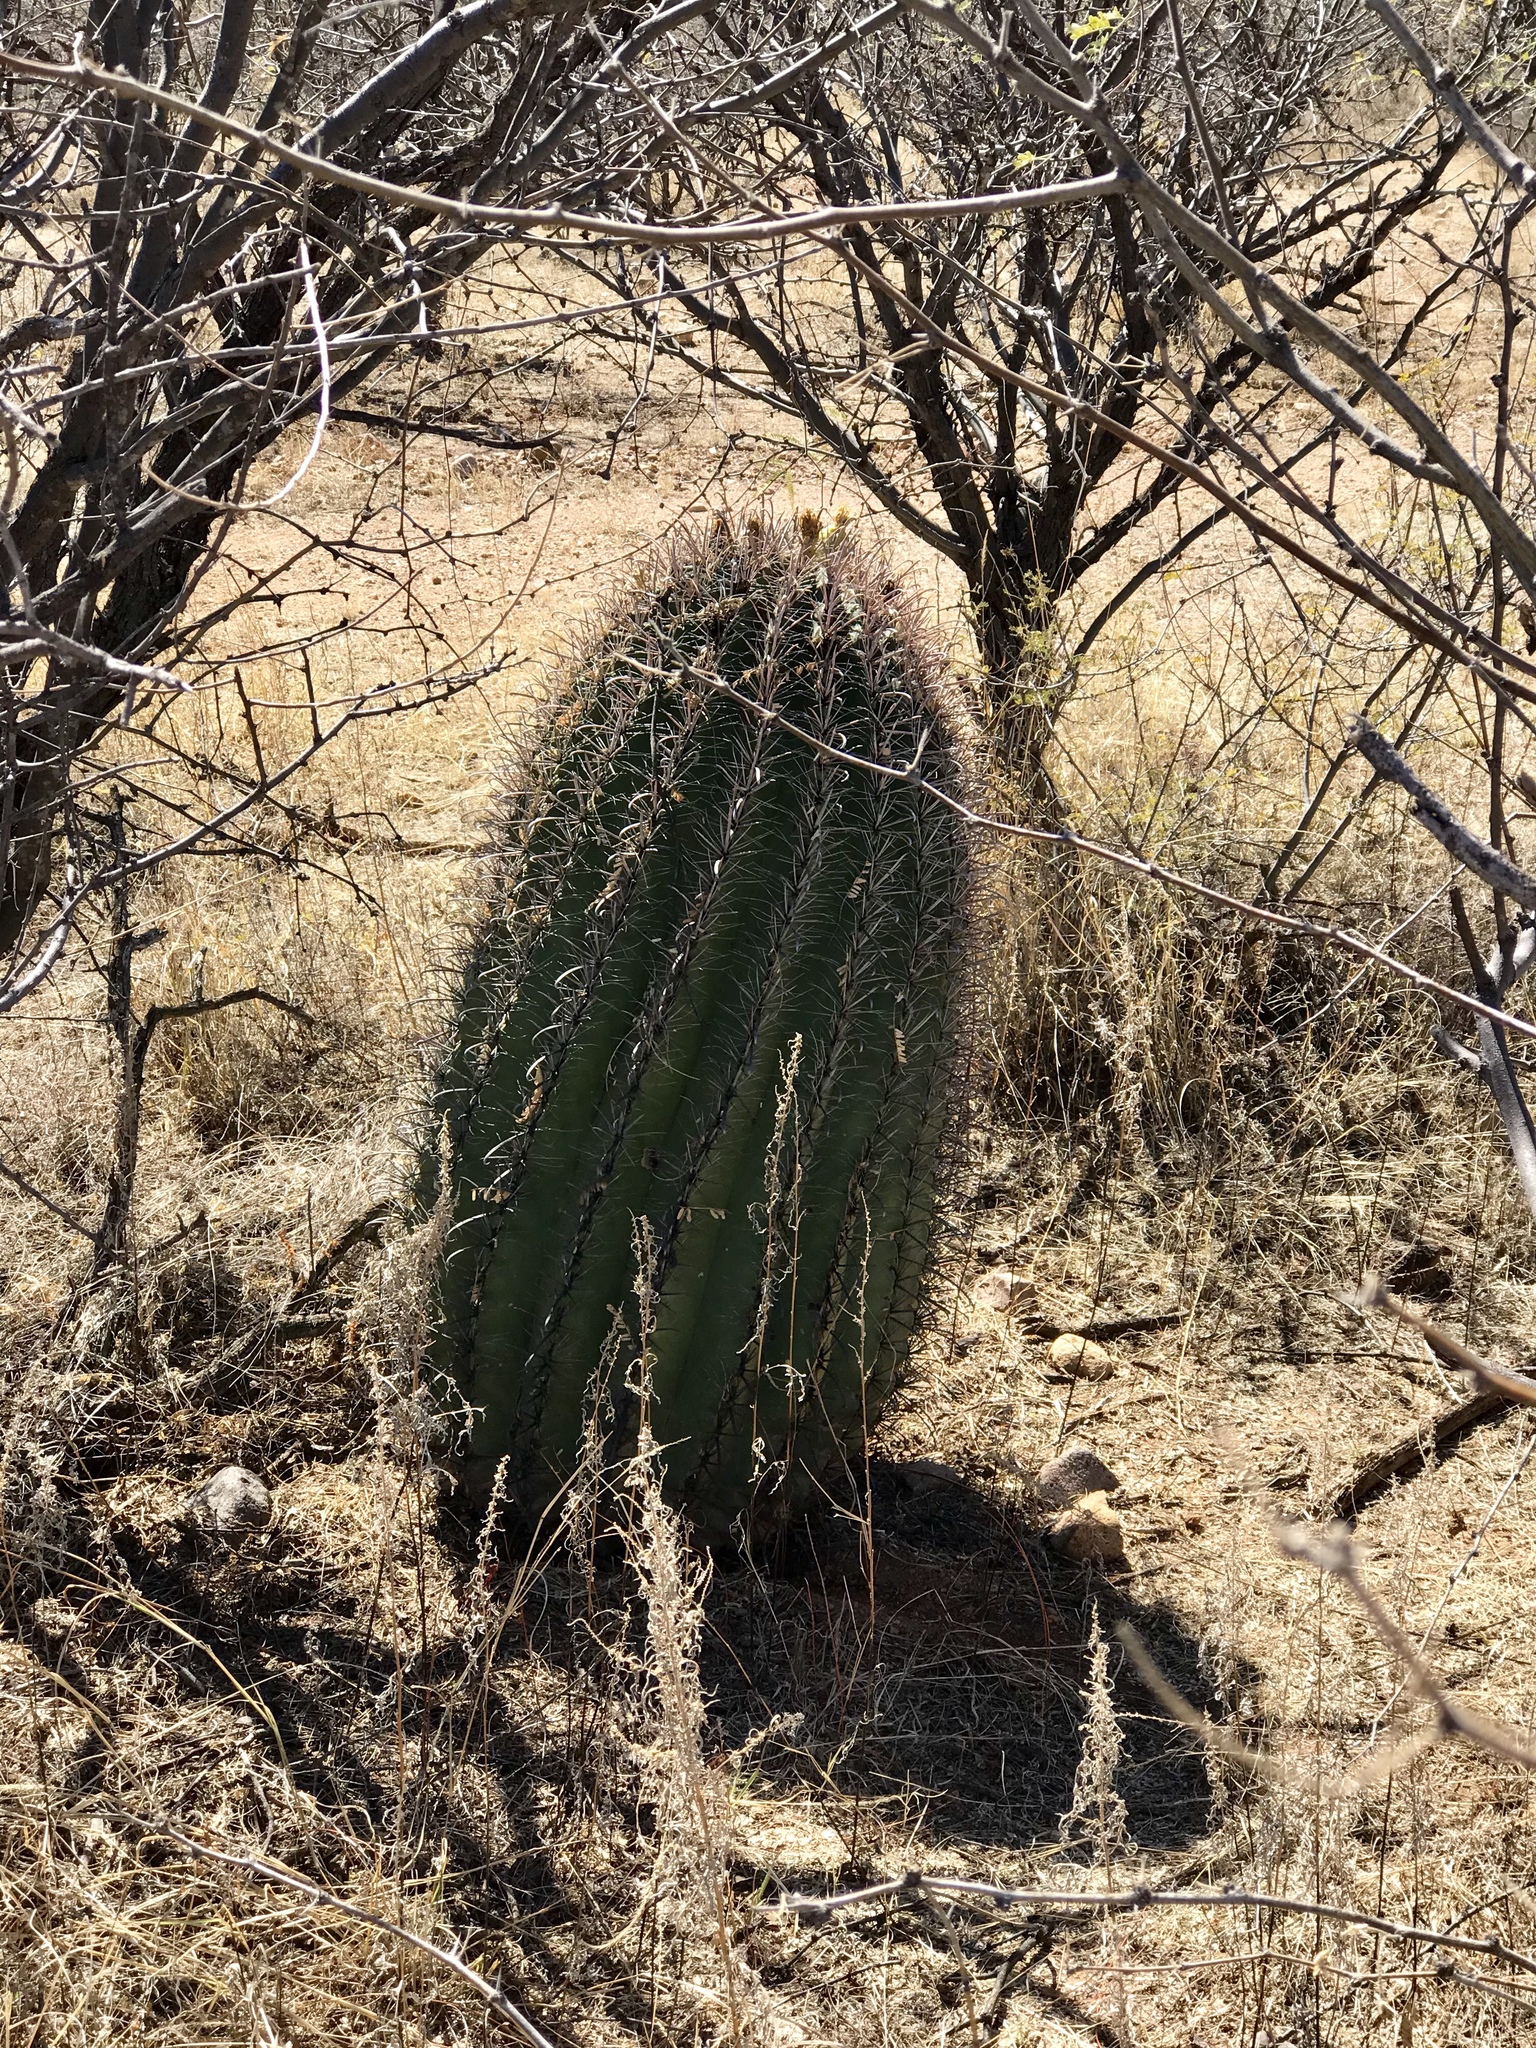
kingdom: Plantae
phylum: Tracheophyta
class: Magnoliopsida
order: Caryophyllales
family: Cactaceae
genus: Ferocactus
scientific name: Ferocactus wislizeni
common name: Candy barrel cactus
